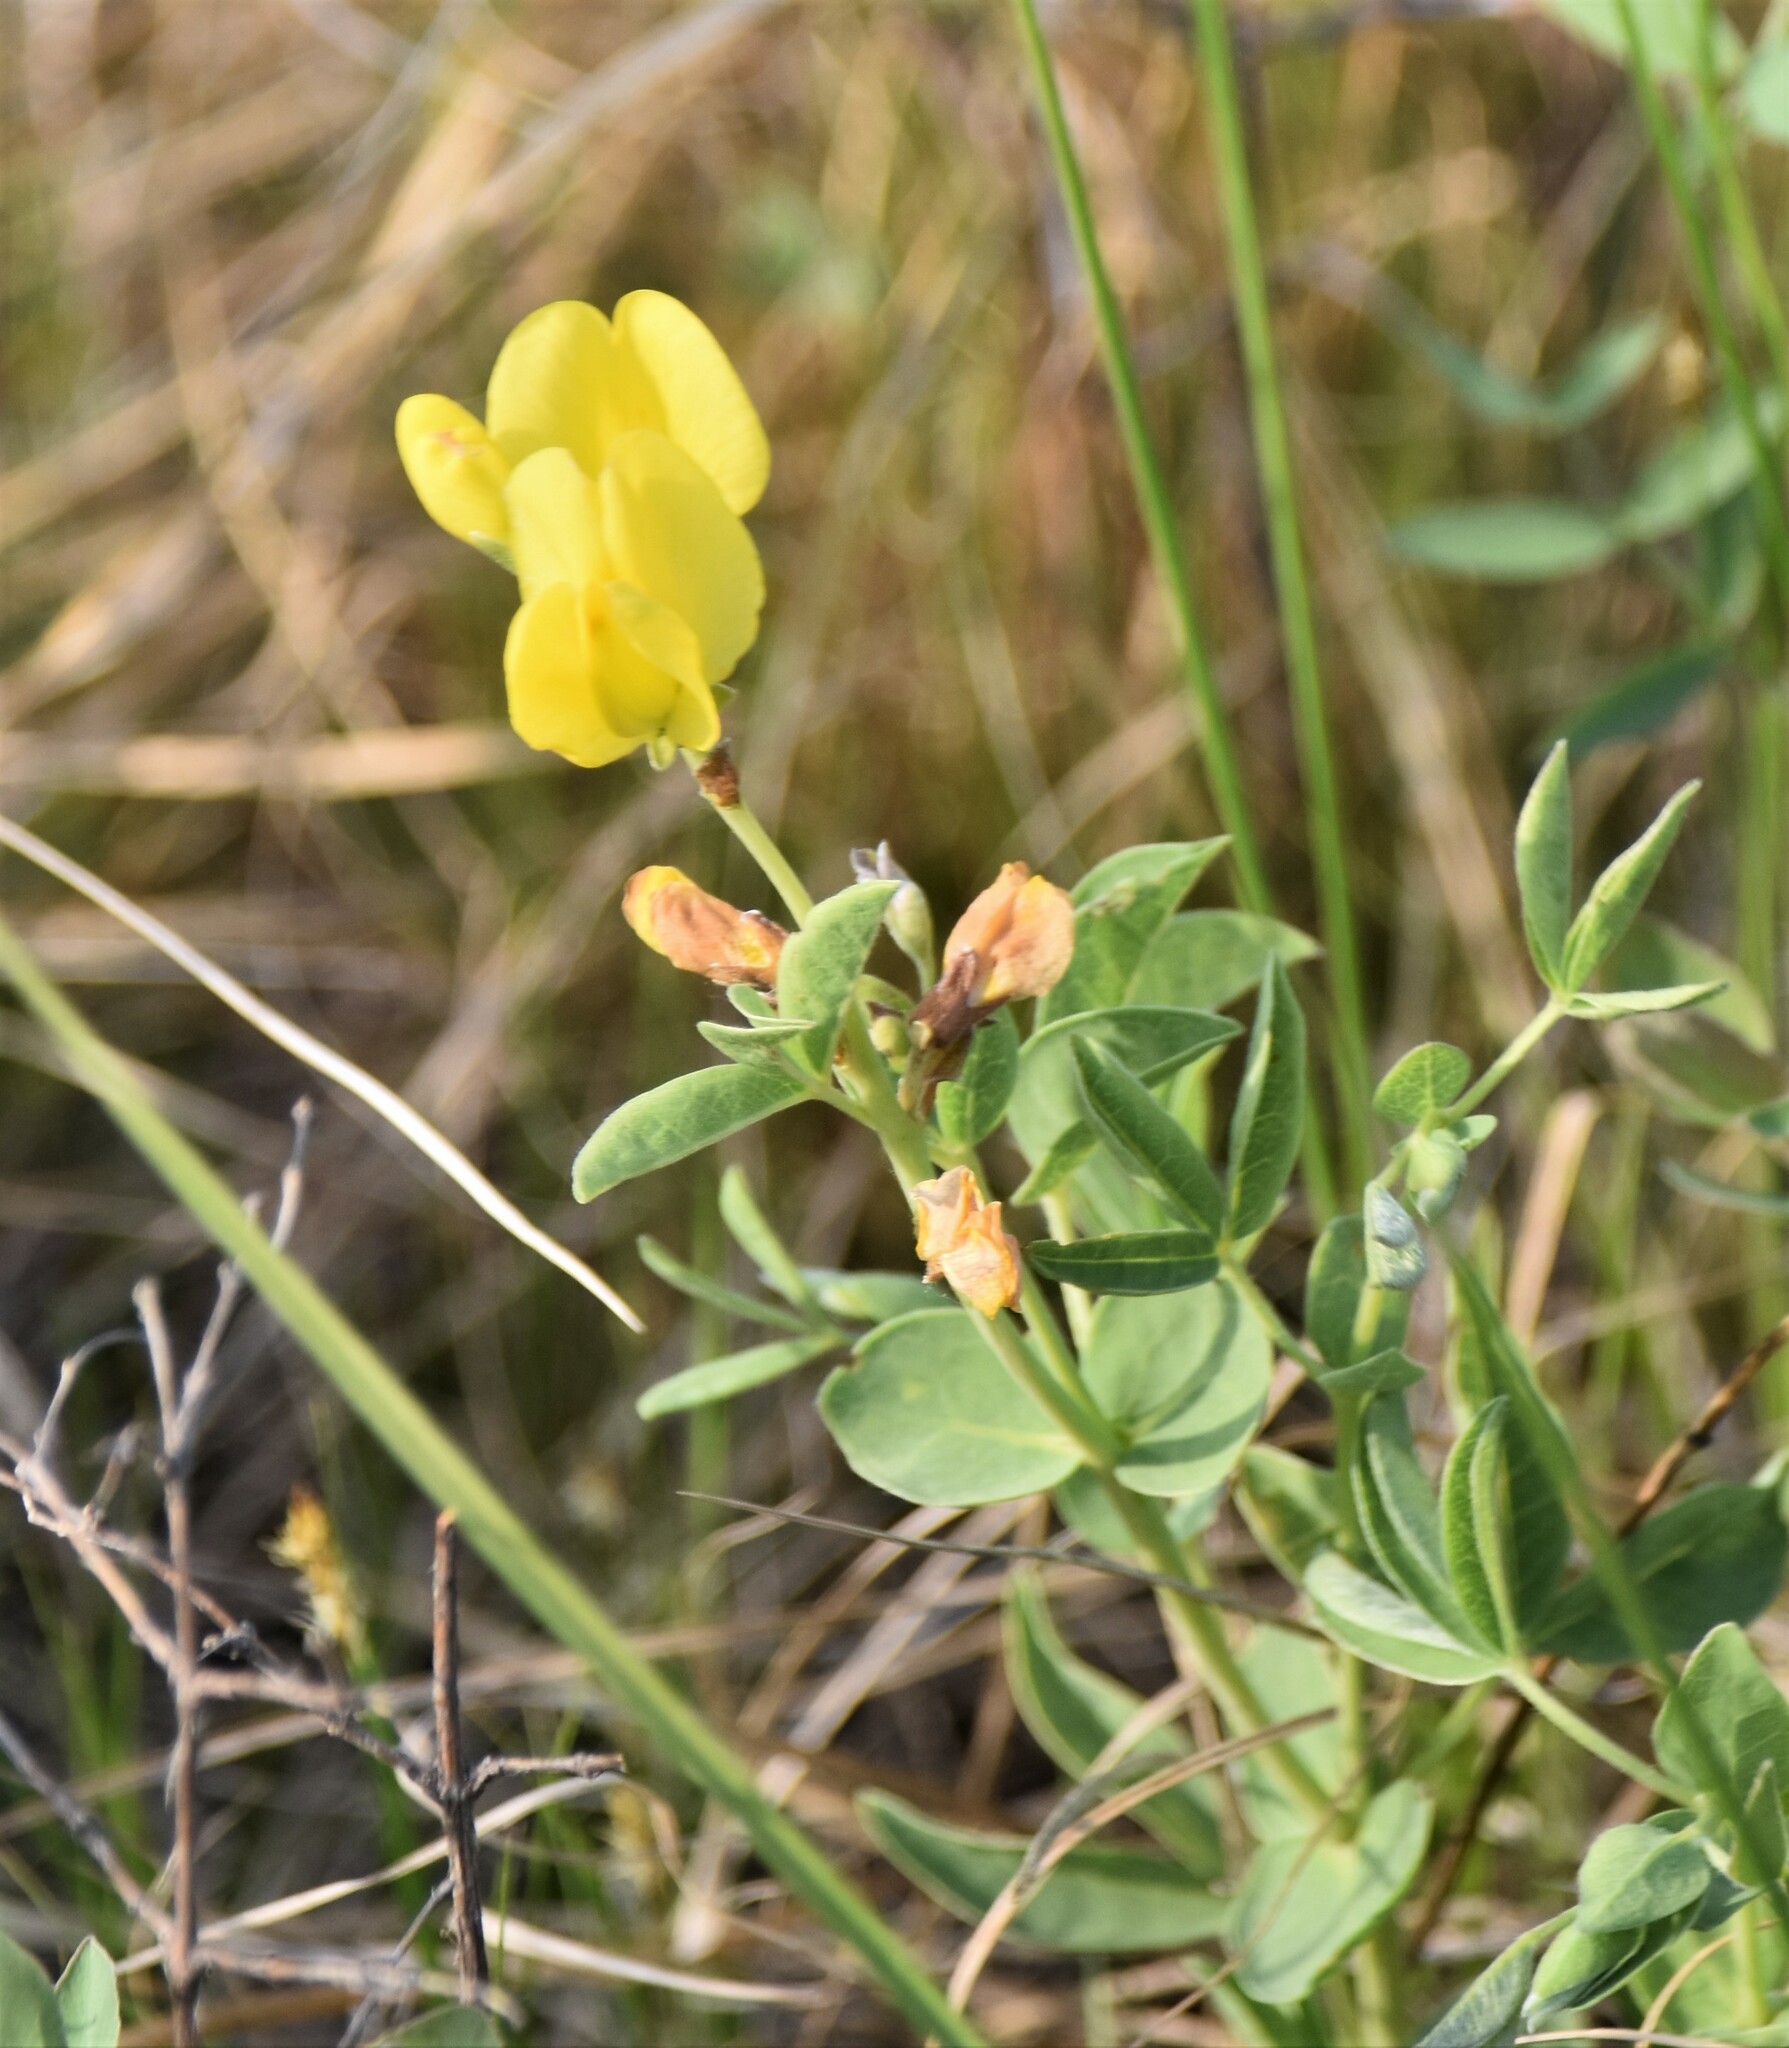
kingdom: Plantae
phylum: Tracheophyta
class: Magnoliopsida
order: Fabales
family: Fabaceae
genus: Thermopsis
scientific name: Thermopsis rhombifolia
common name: Circle-pod-pea
